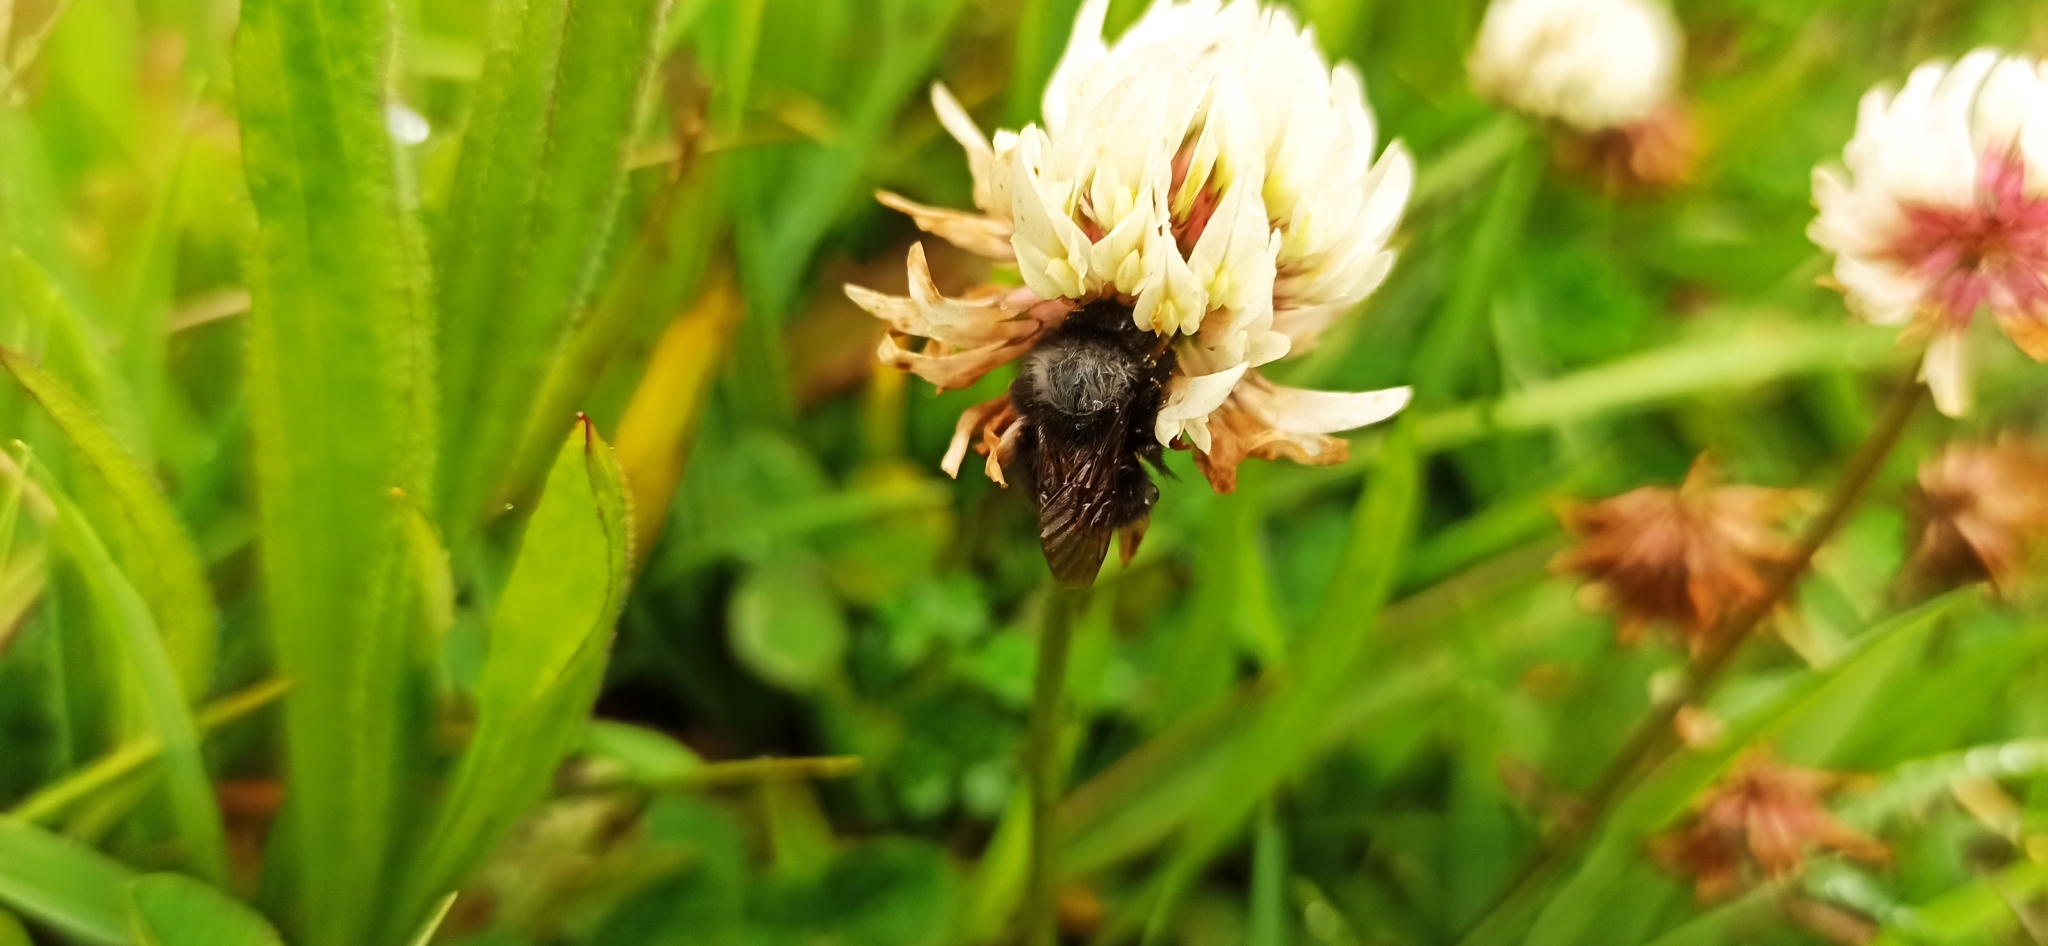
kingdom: Animalia
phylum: Arthropoda
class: Insecta
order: Hymenoptera
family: Apidae
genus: Bombus
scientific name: Bombus funebris
